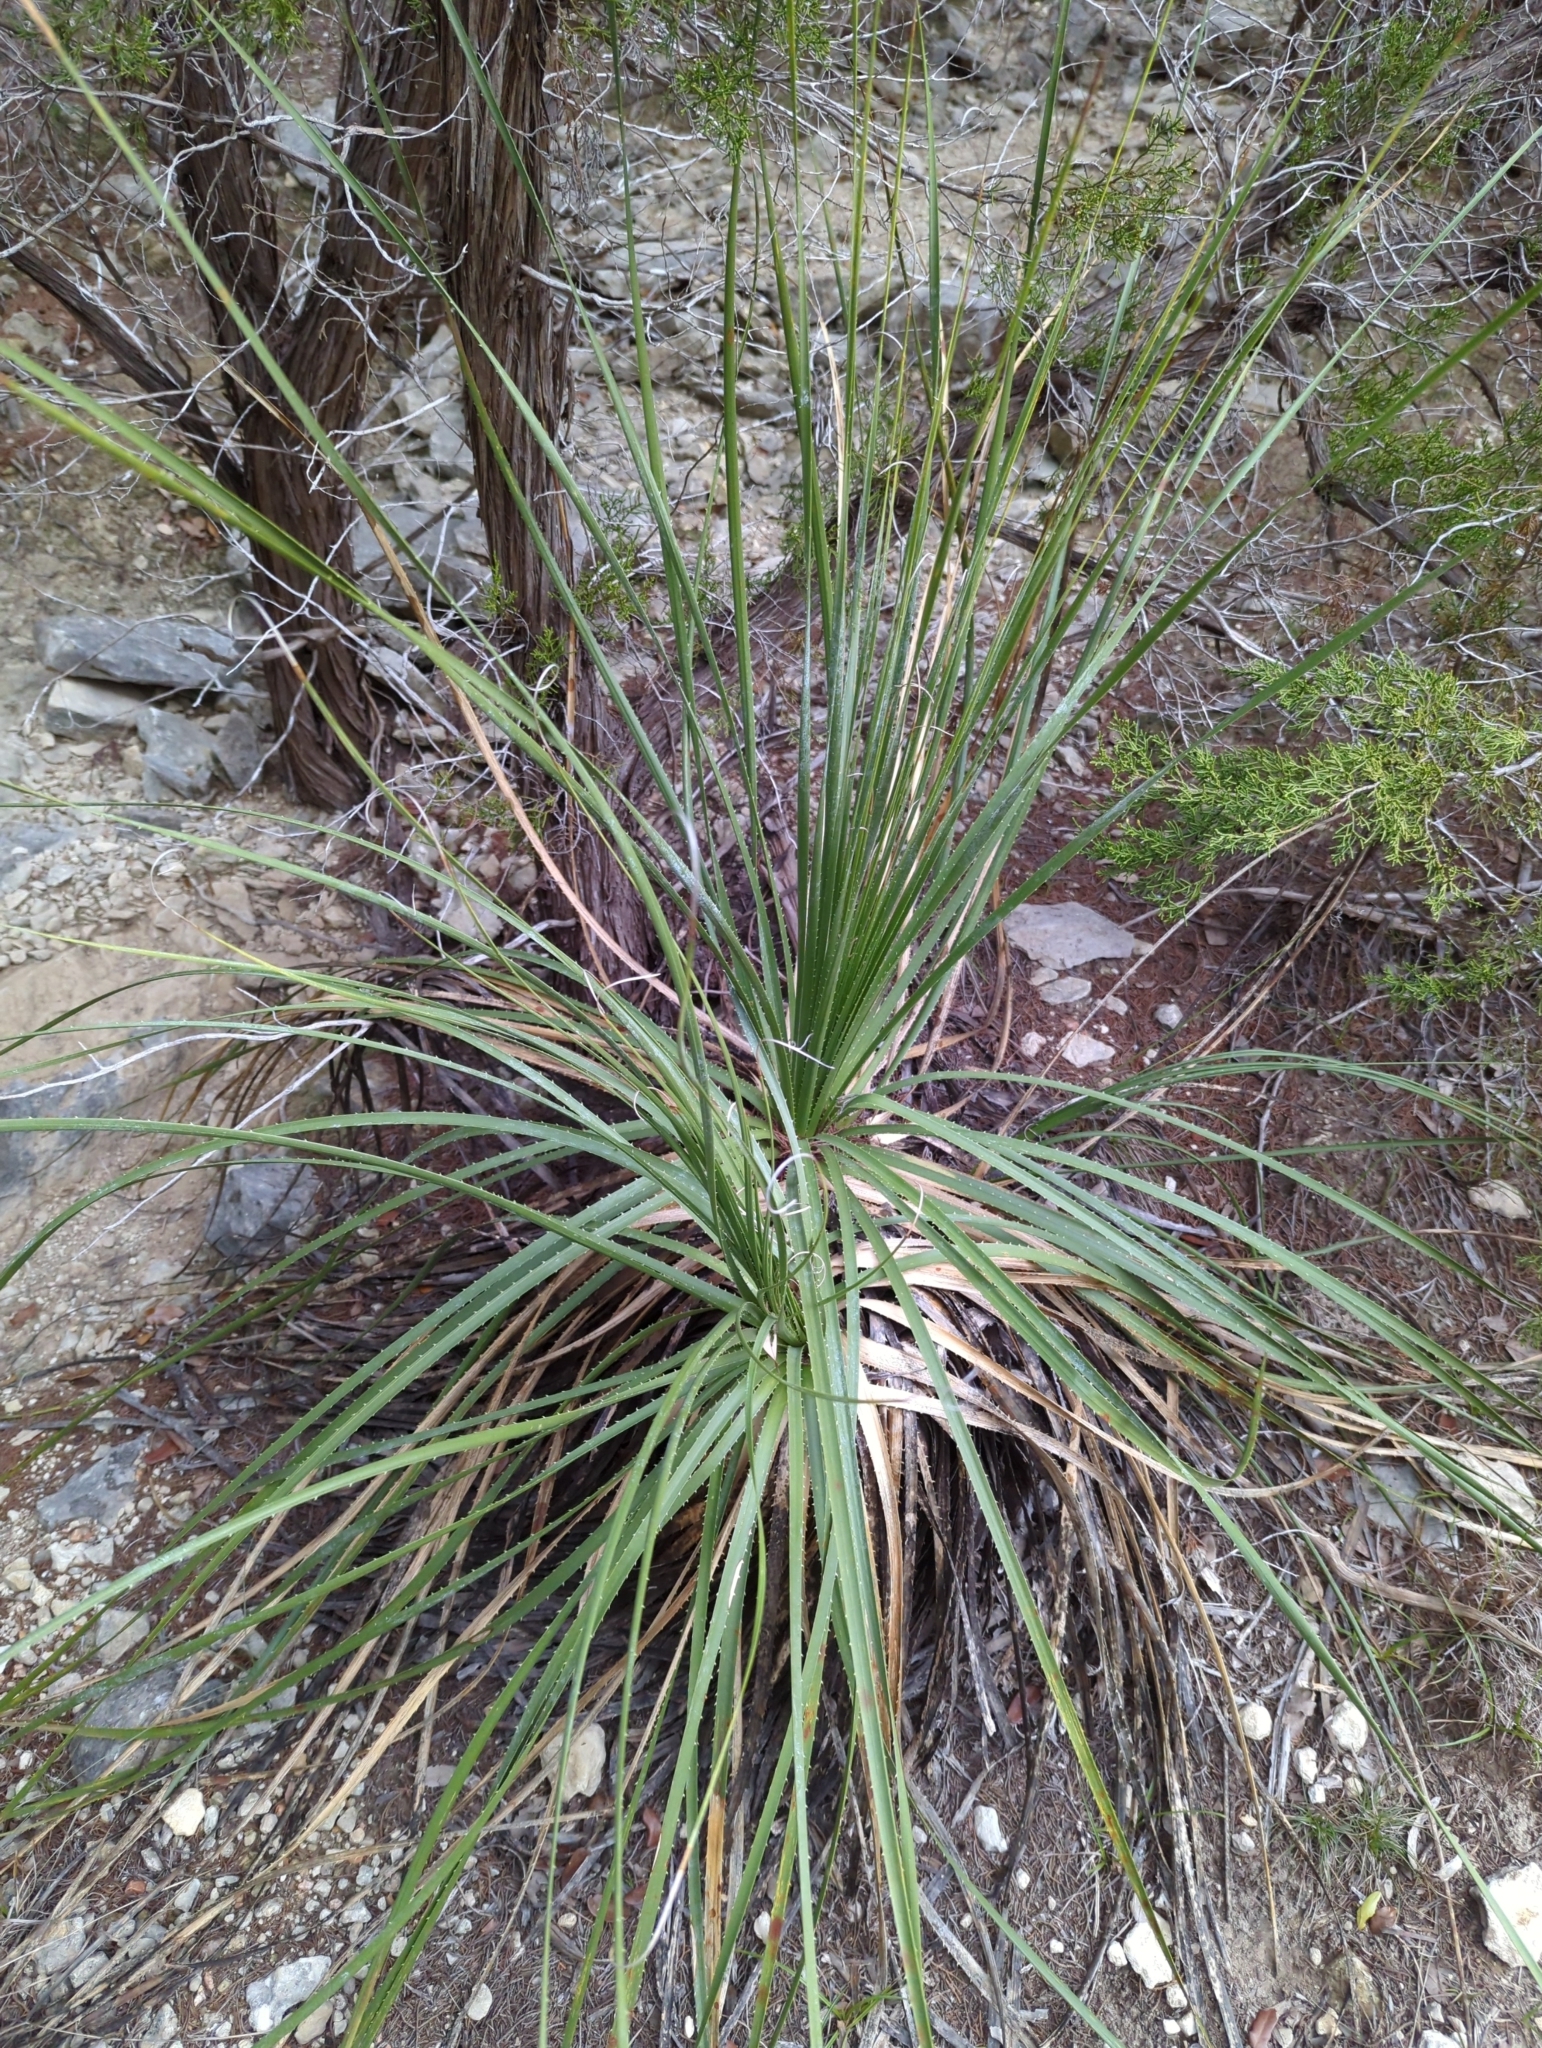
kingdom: Plantae
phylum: Tracheophyta
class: Liliopsida
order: Asparagales
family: Asparagaceae
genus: Dasylirion
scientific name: Dasylirion texanum
